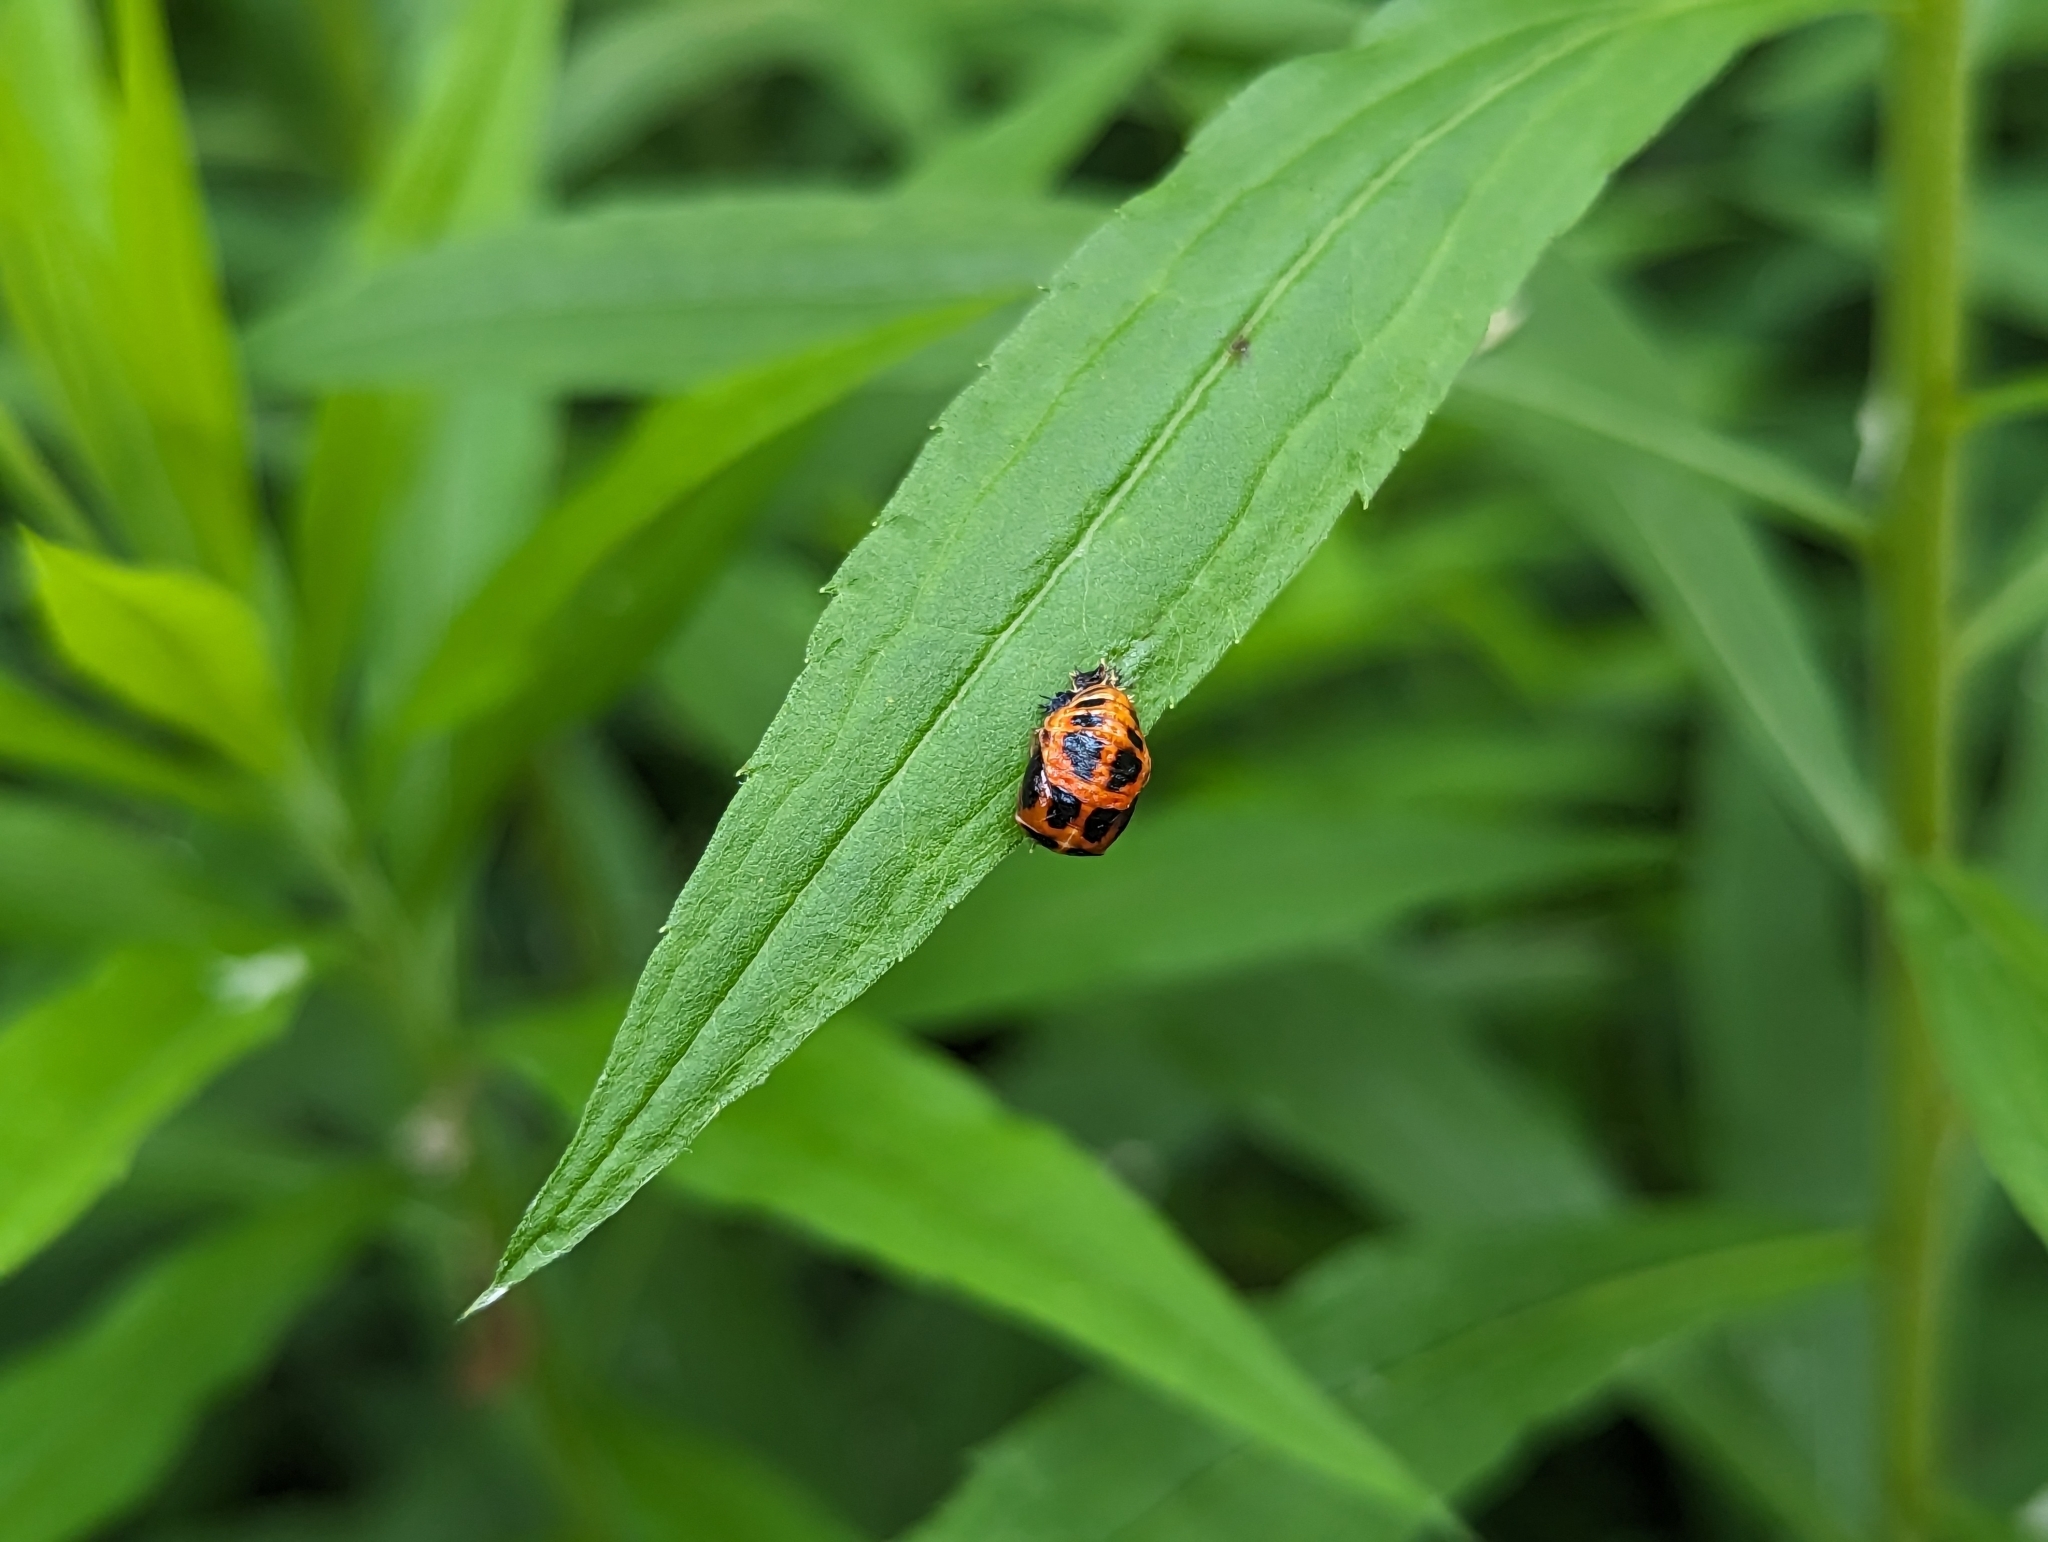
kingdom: Animalia
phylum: Arthropoda
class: Insecta
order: Coleoptera
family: Coccinellidae
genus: Harmonia
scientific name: Harmonia axyridis
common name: Harlequin ladybird
